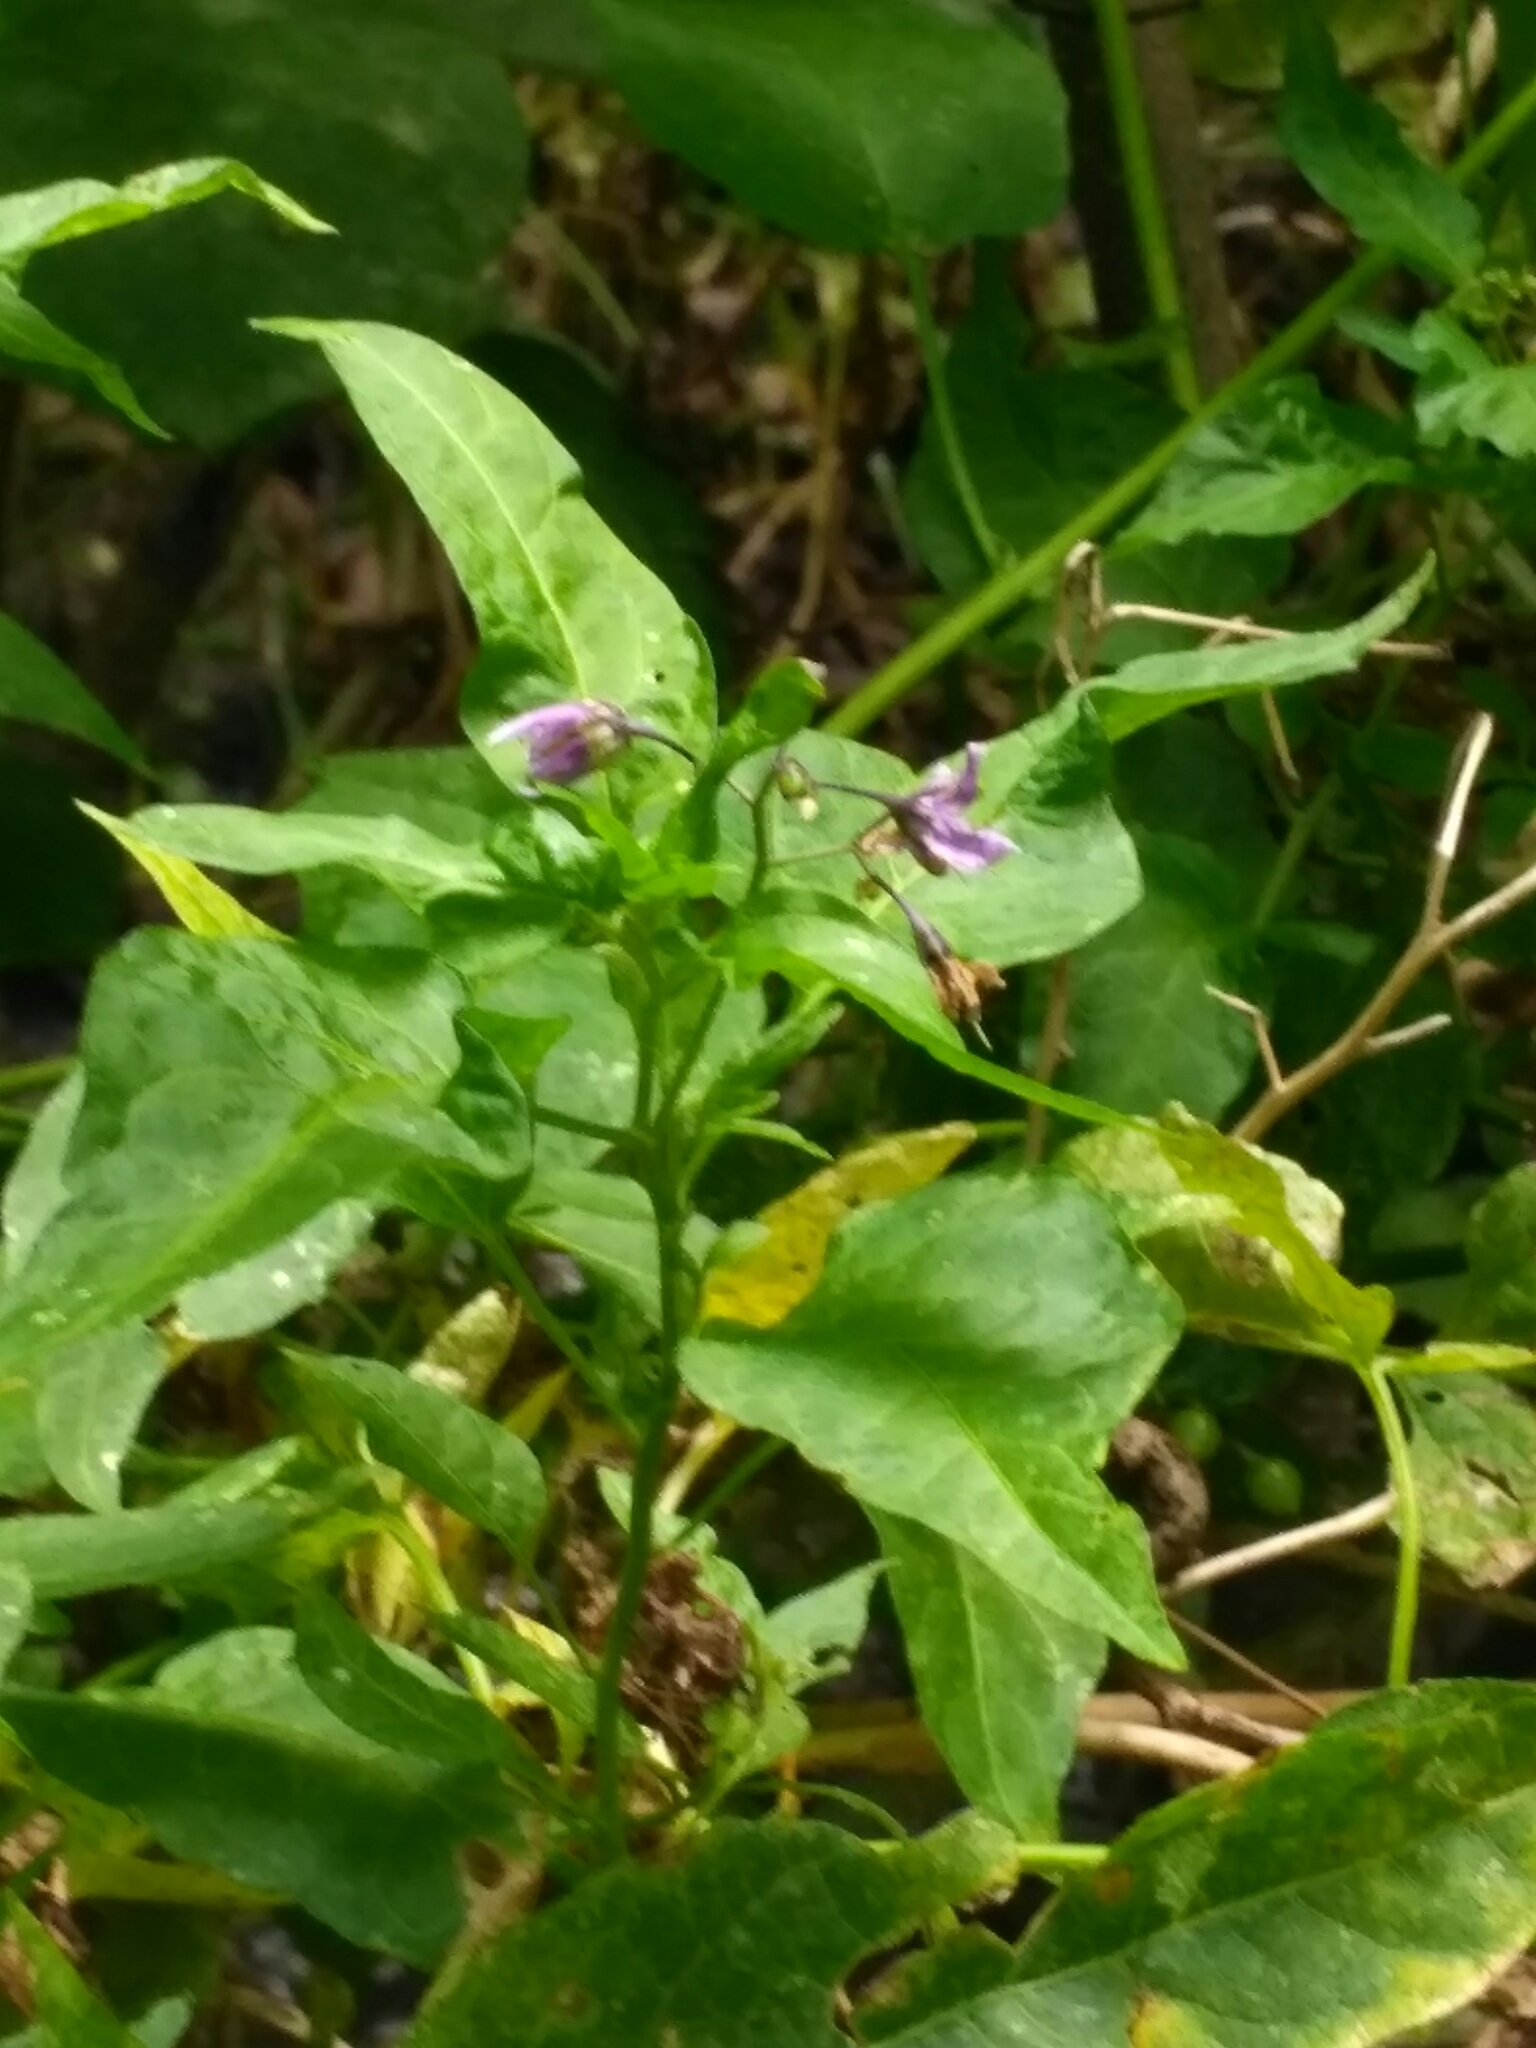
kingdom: Plantae
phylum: Tracheophyta
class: Magnoliopsida
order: Solanales
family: Solanaceae
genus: Solanum
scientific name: Solanum dulcamara
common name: Climbing nightshade
